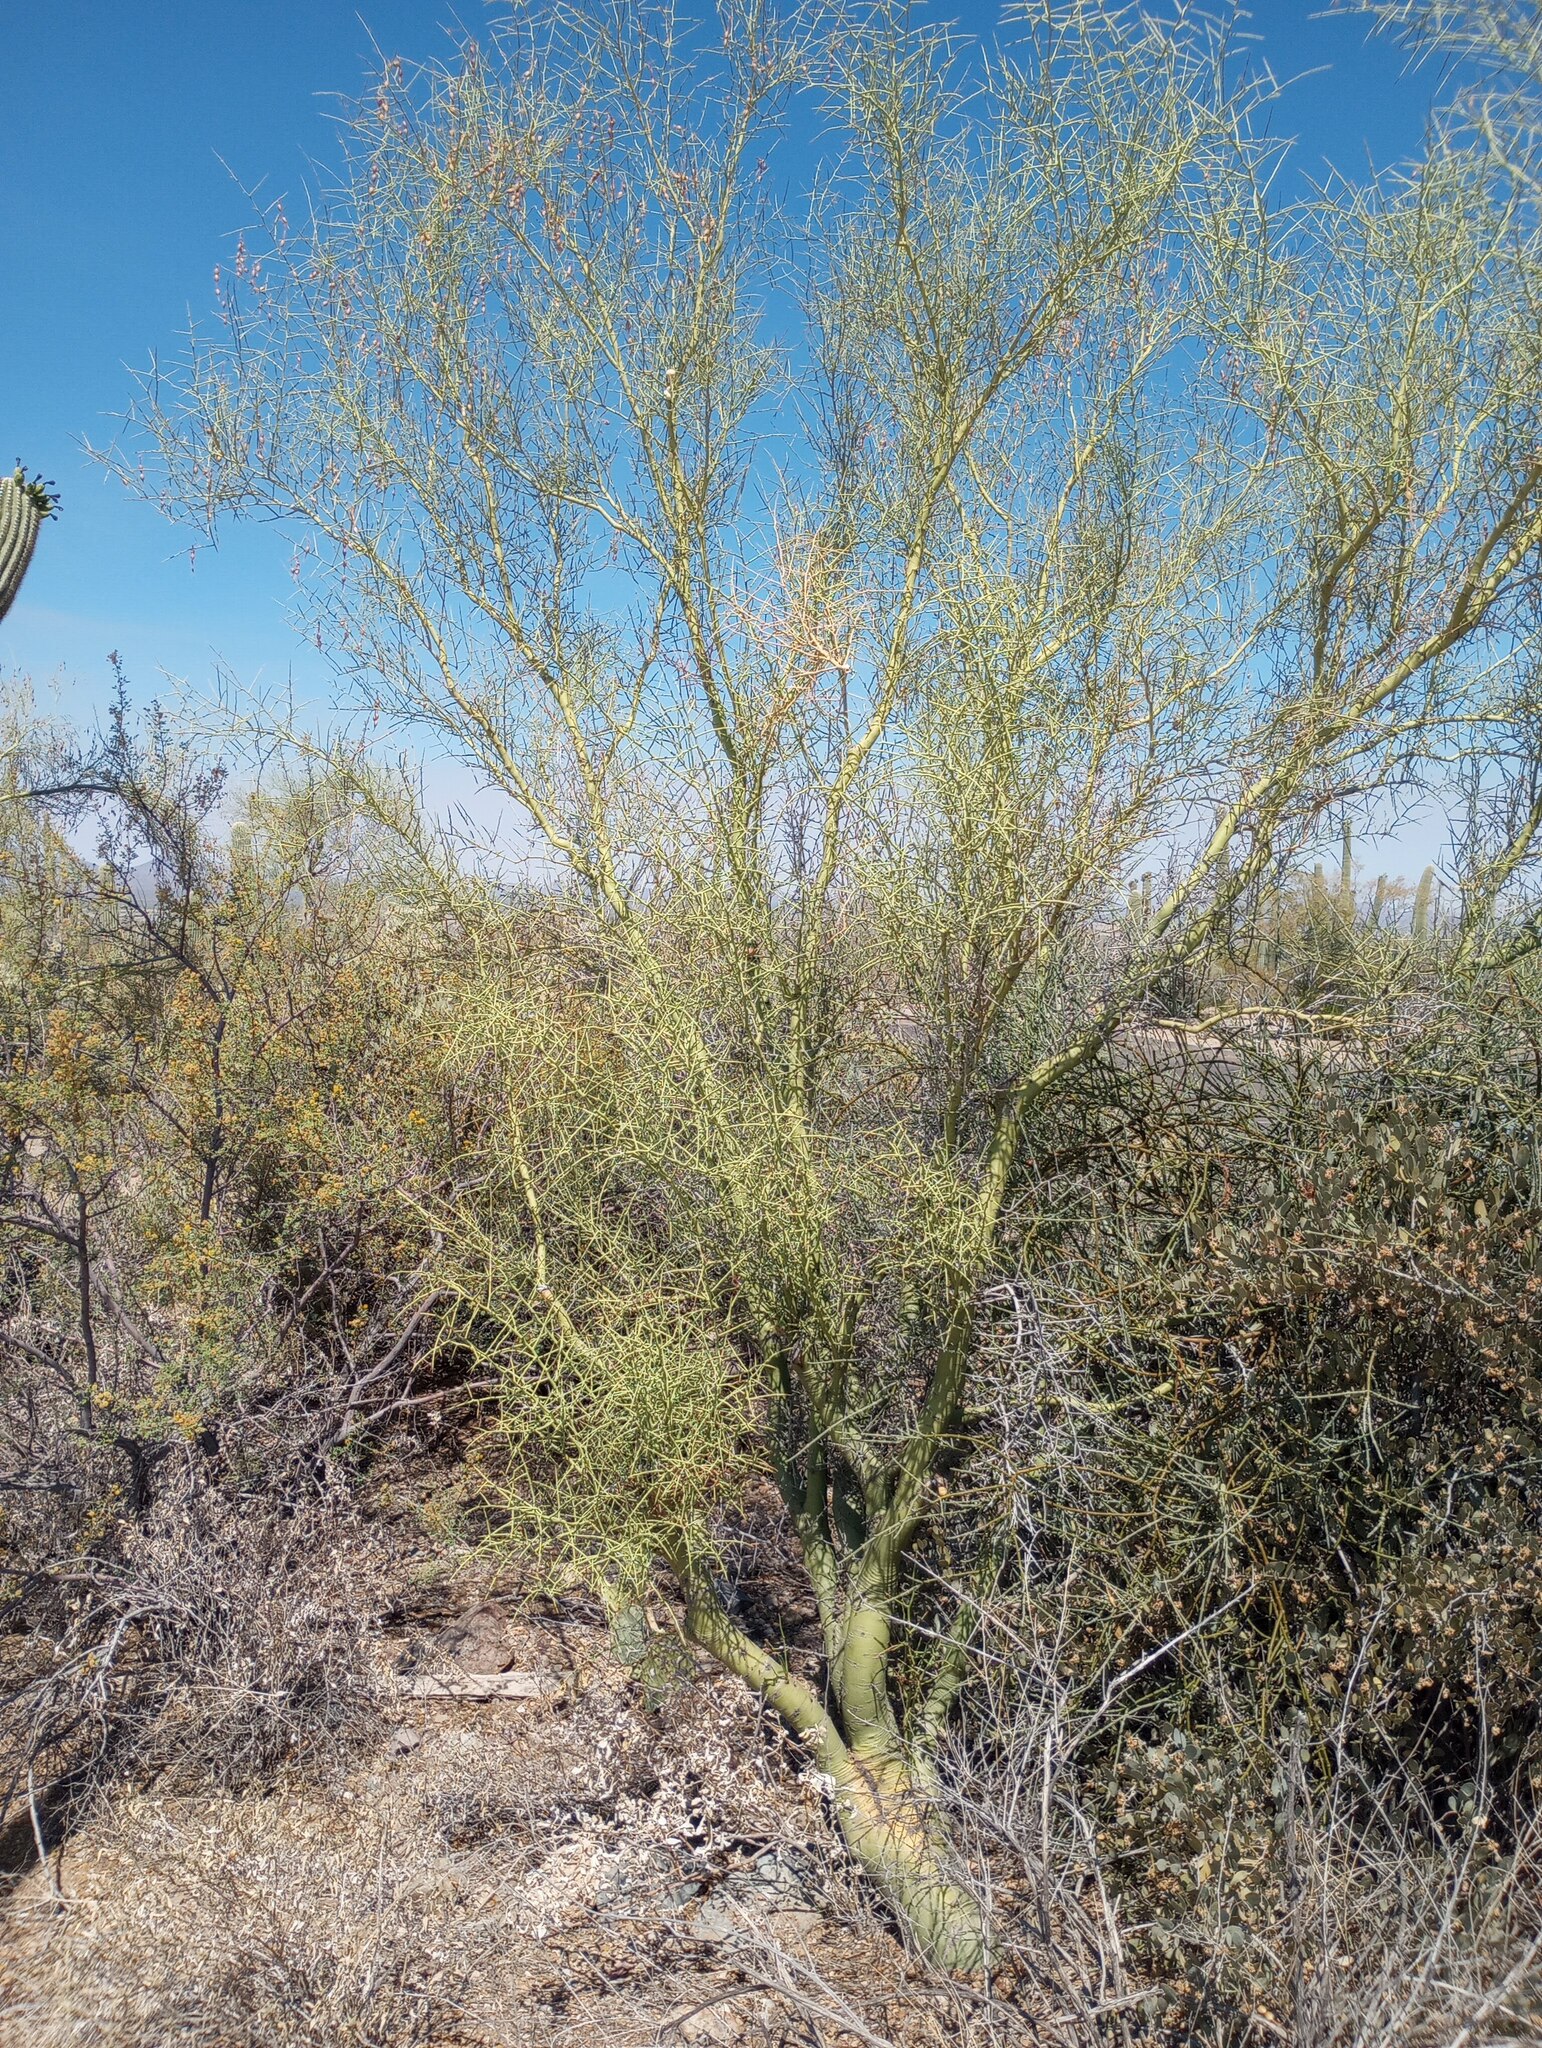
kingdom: Plantae
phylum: Tracheophyta
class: Magnoliopsida
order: Fabales
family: Fabaceae
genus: Parkinsonia
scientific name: Parkinsonia microphylla
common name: Yellow paloverde
